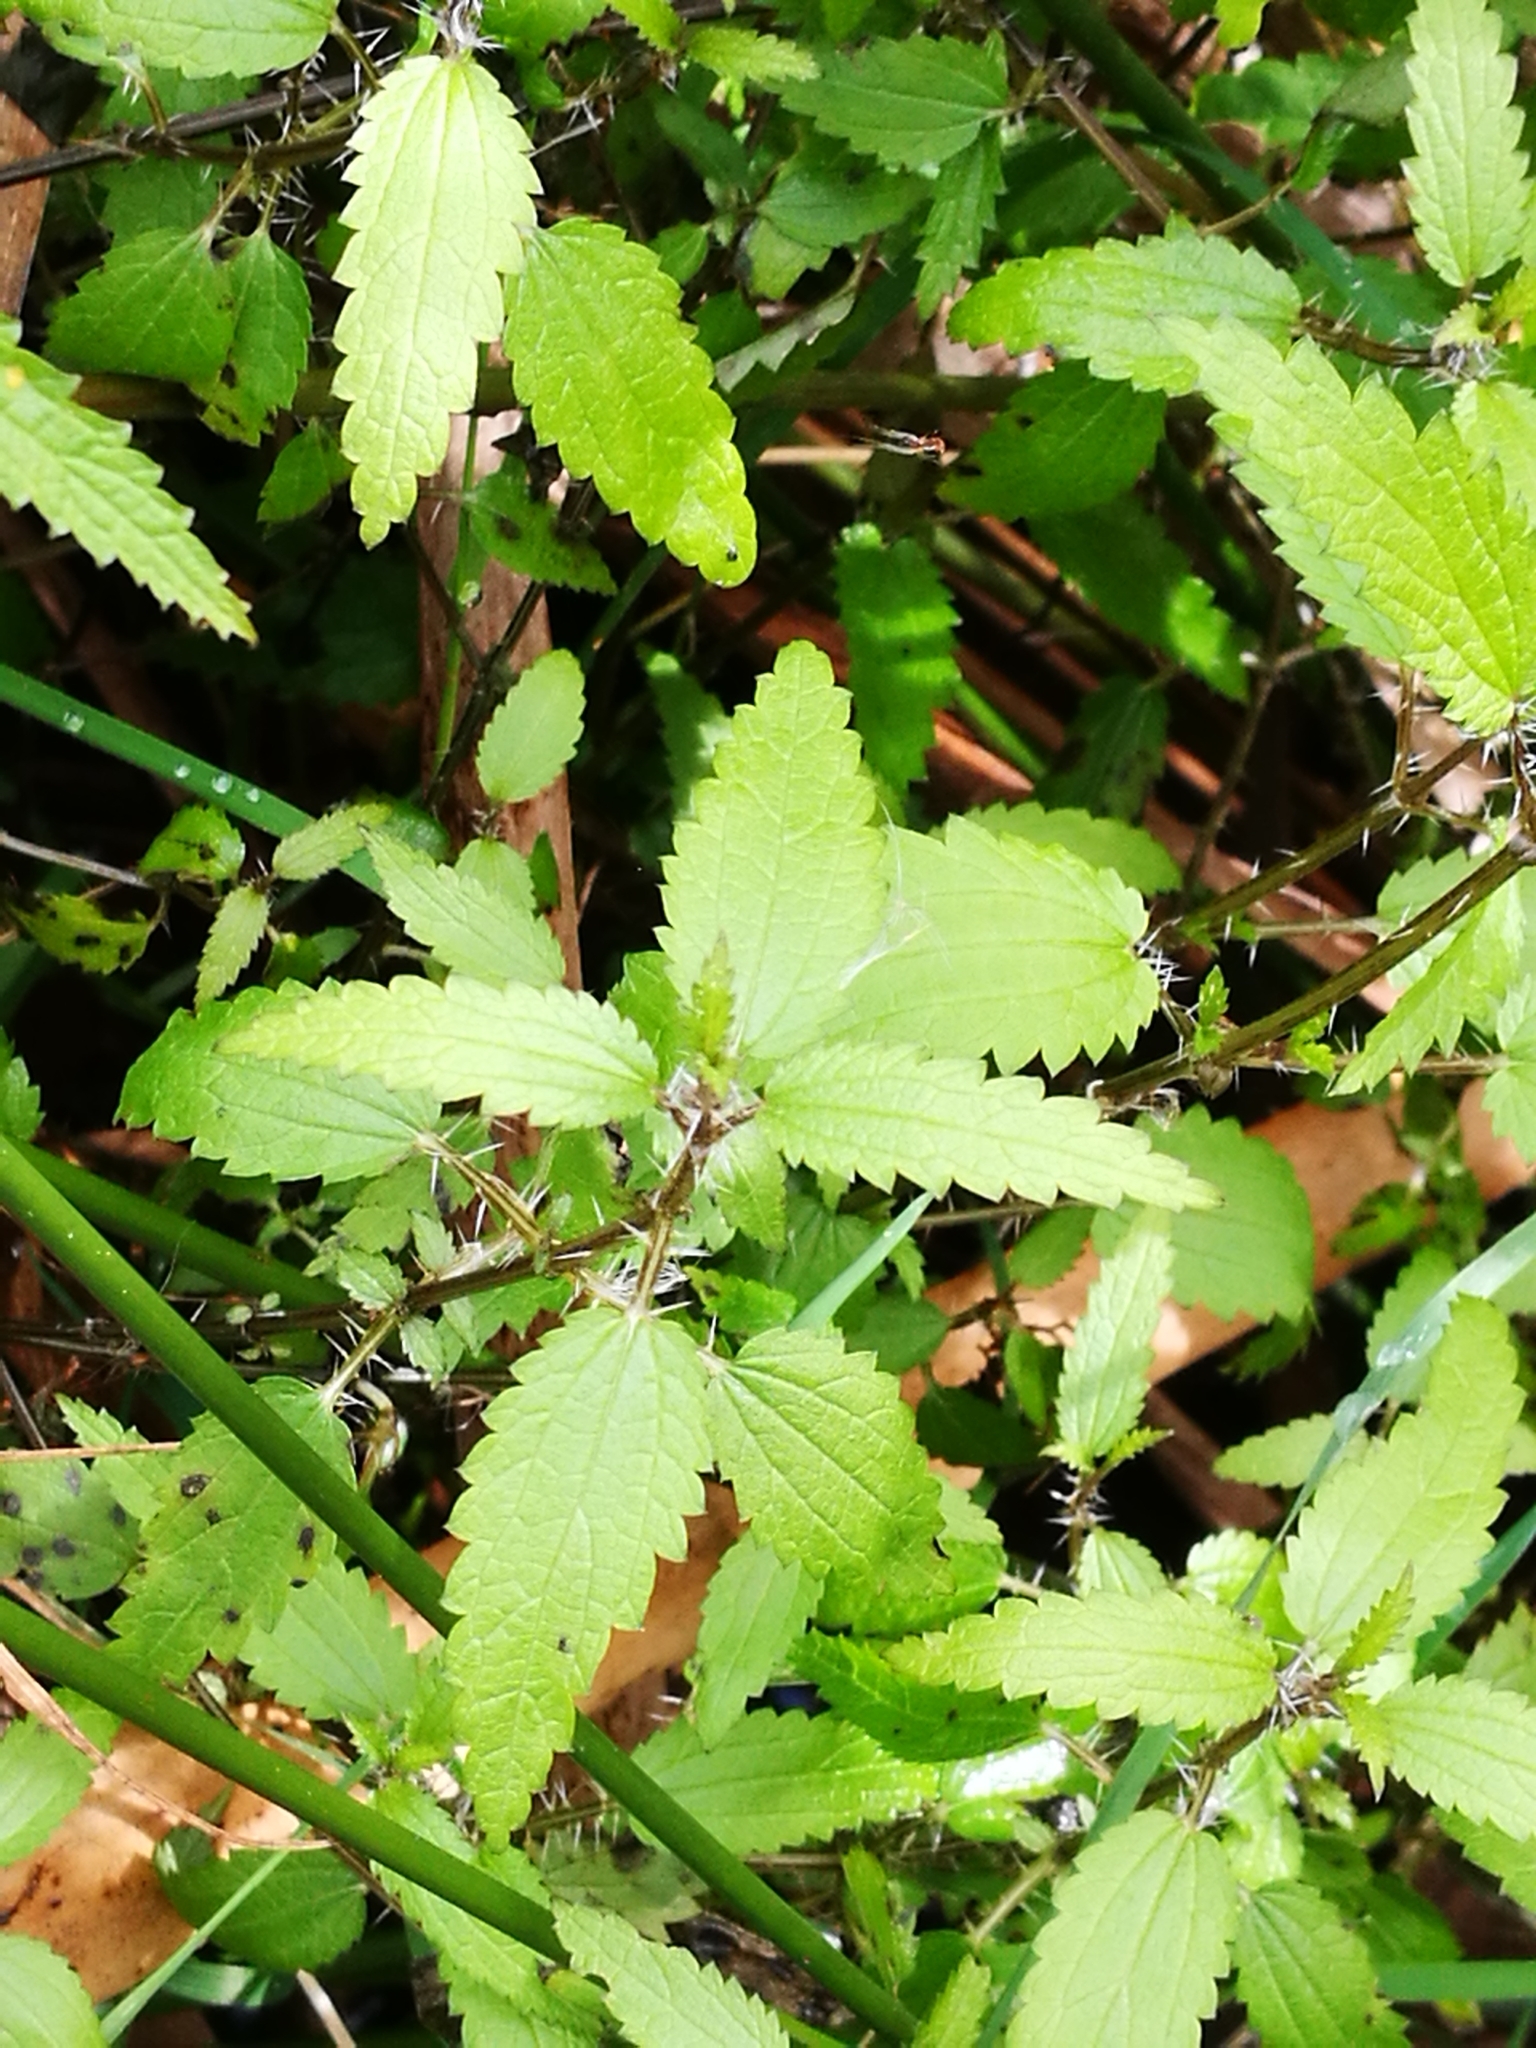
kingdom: Plantae
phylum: Tracheophyta
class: Magnoliopsida
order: Rosales
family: Urticaceae
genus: Urtica
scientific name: Urtica perconfusa
